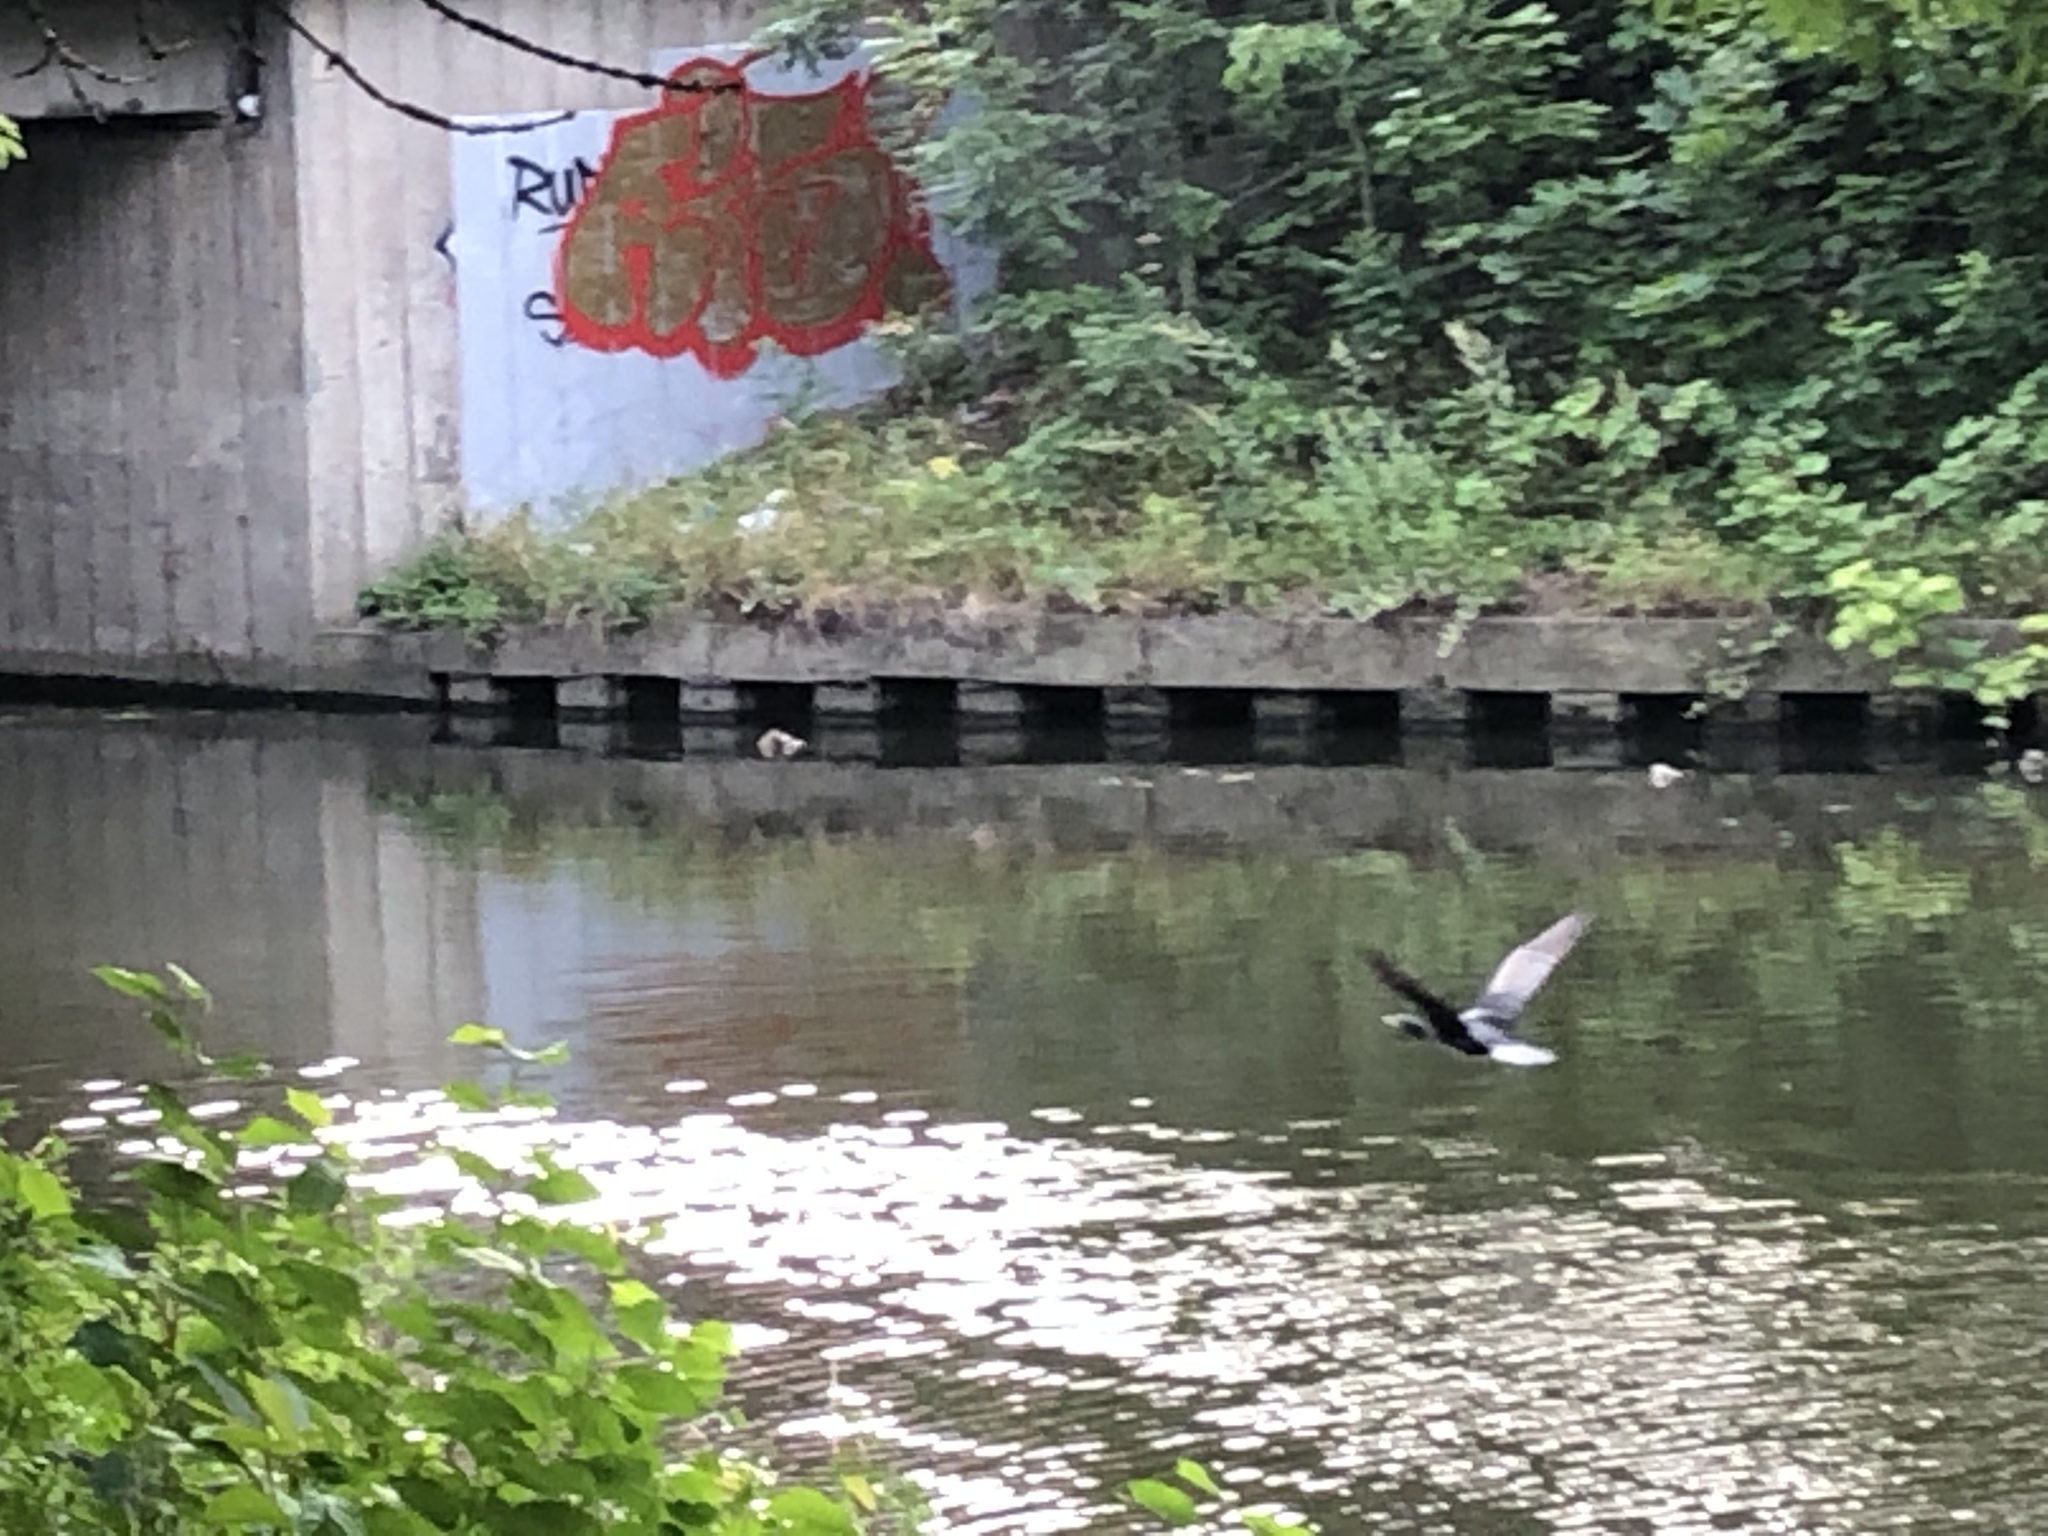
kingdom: Animalia
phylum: Chordata
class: Aves
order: Suliformes
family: Phalacrocoracidae
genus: Phalacrocorax
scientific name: Phalacrocorax carbo
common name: Great cormorant
